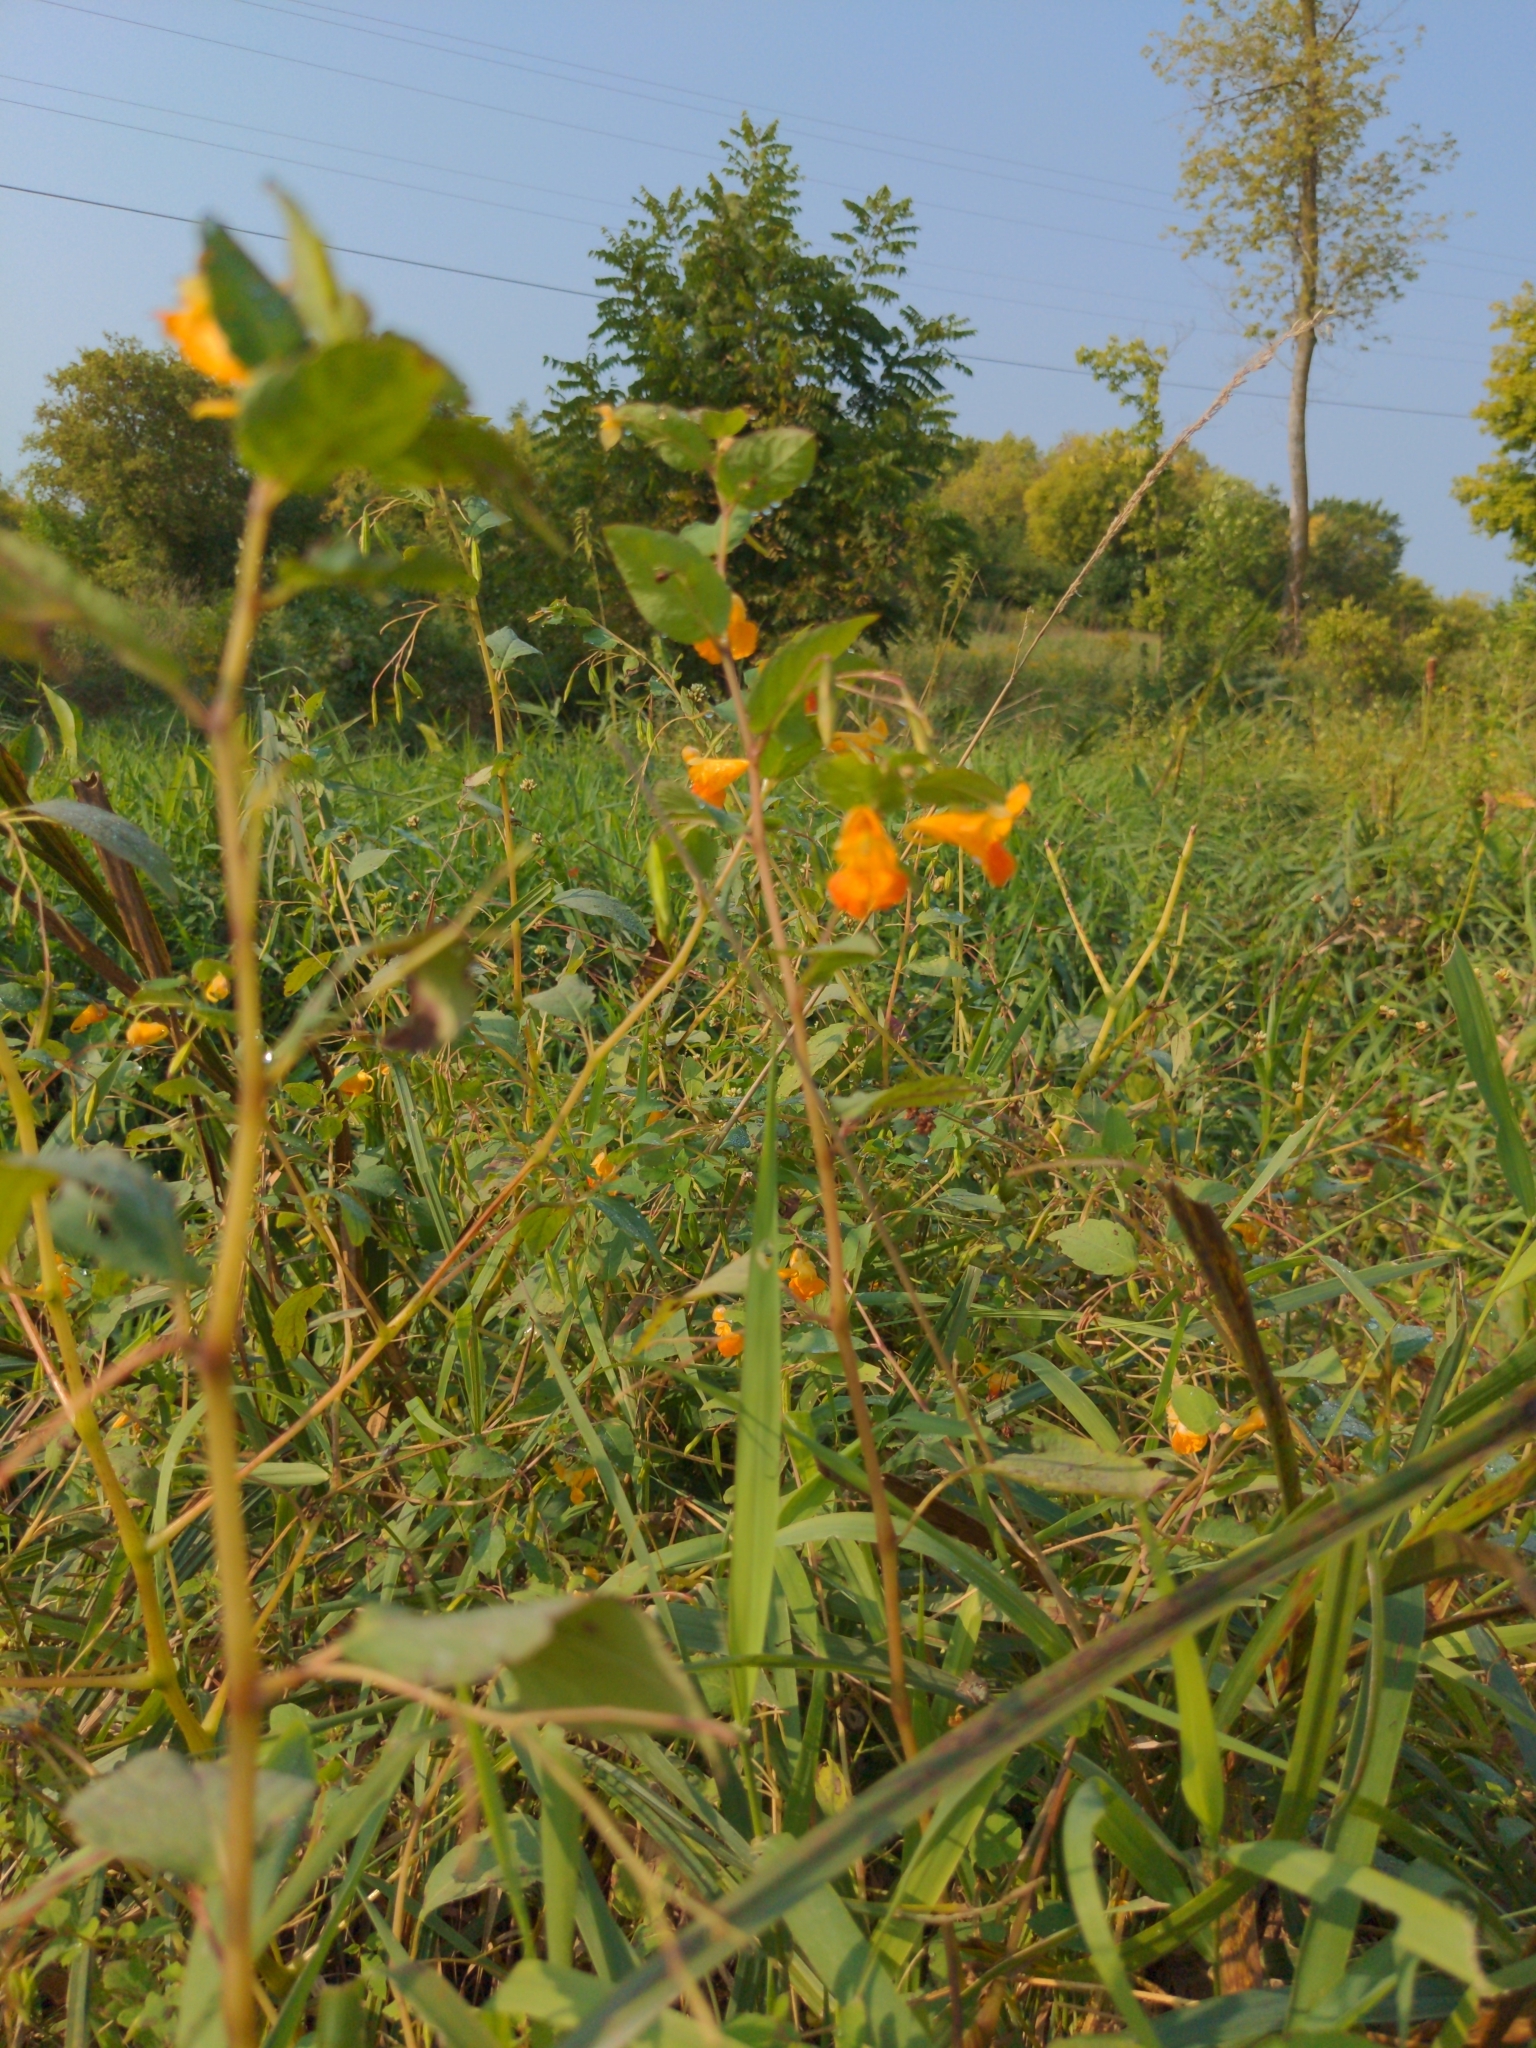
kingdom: Plantae
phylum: Tracheophyta
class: Magnoliopsida
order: Ericales
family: Balsaminaceae
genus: Impatiens
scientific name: Impatiens capensis
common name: Orange balsam
